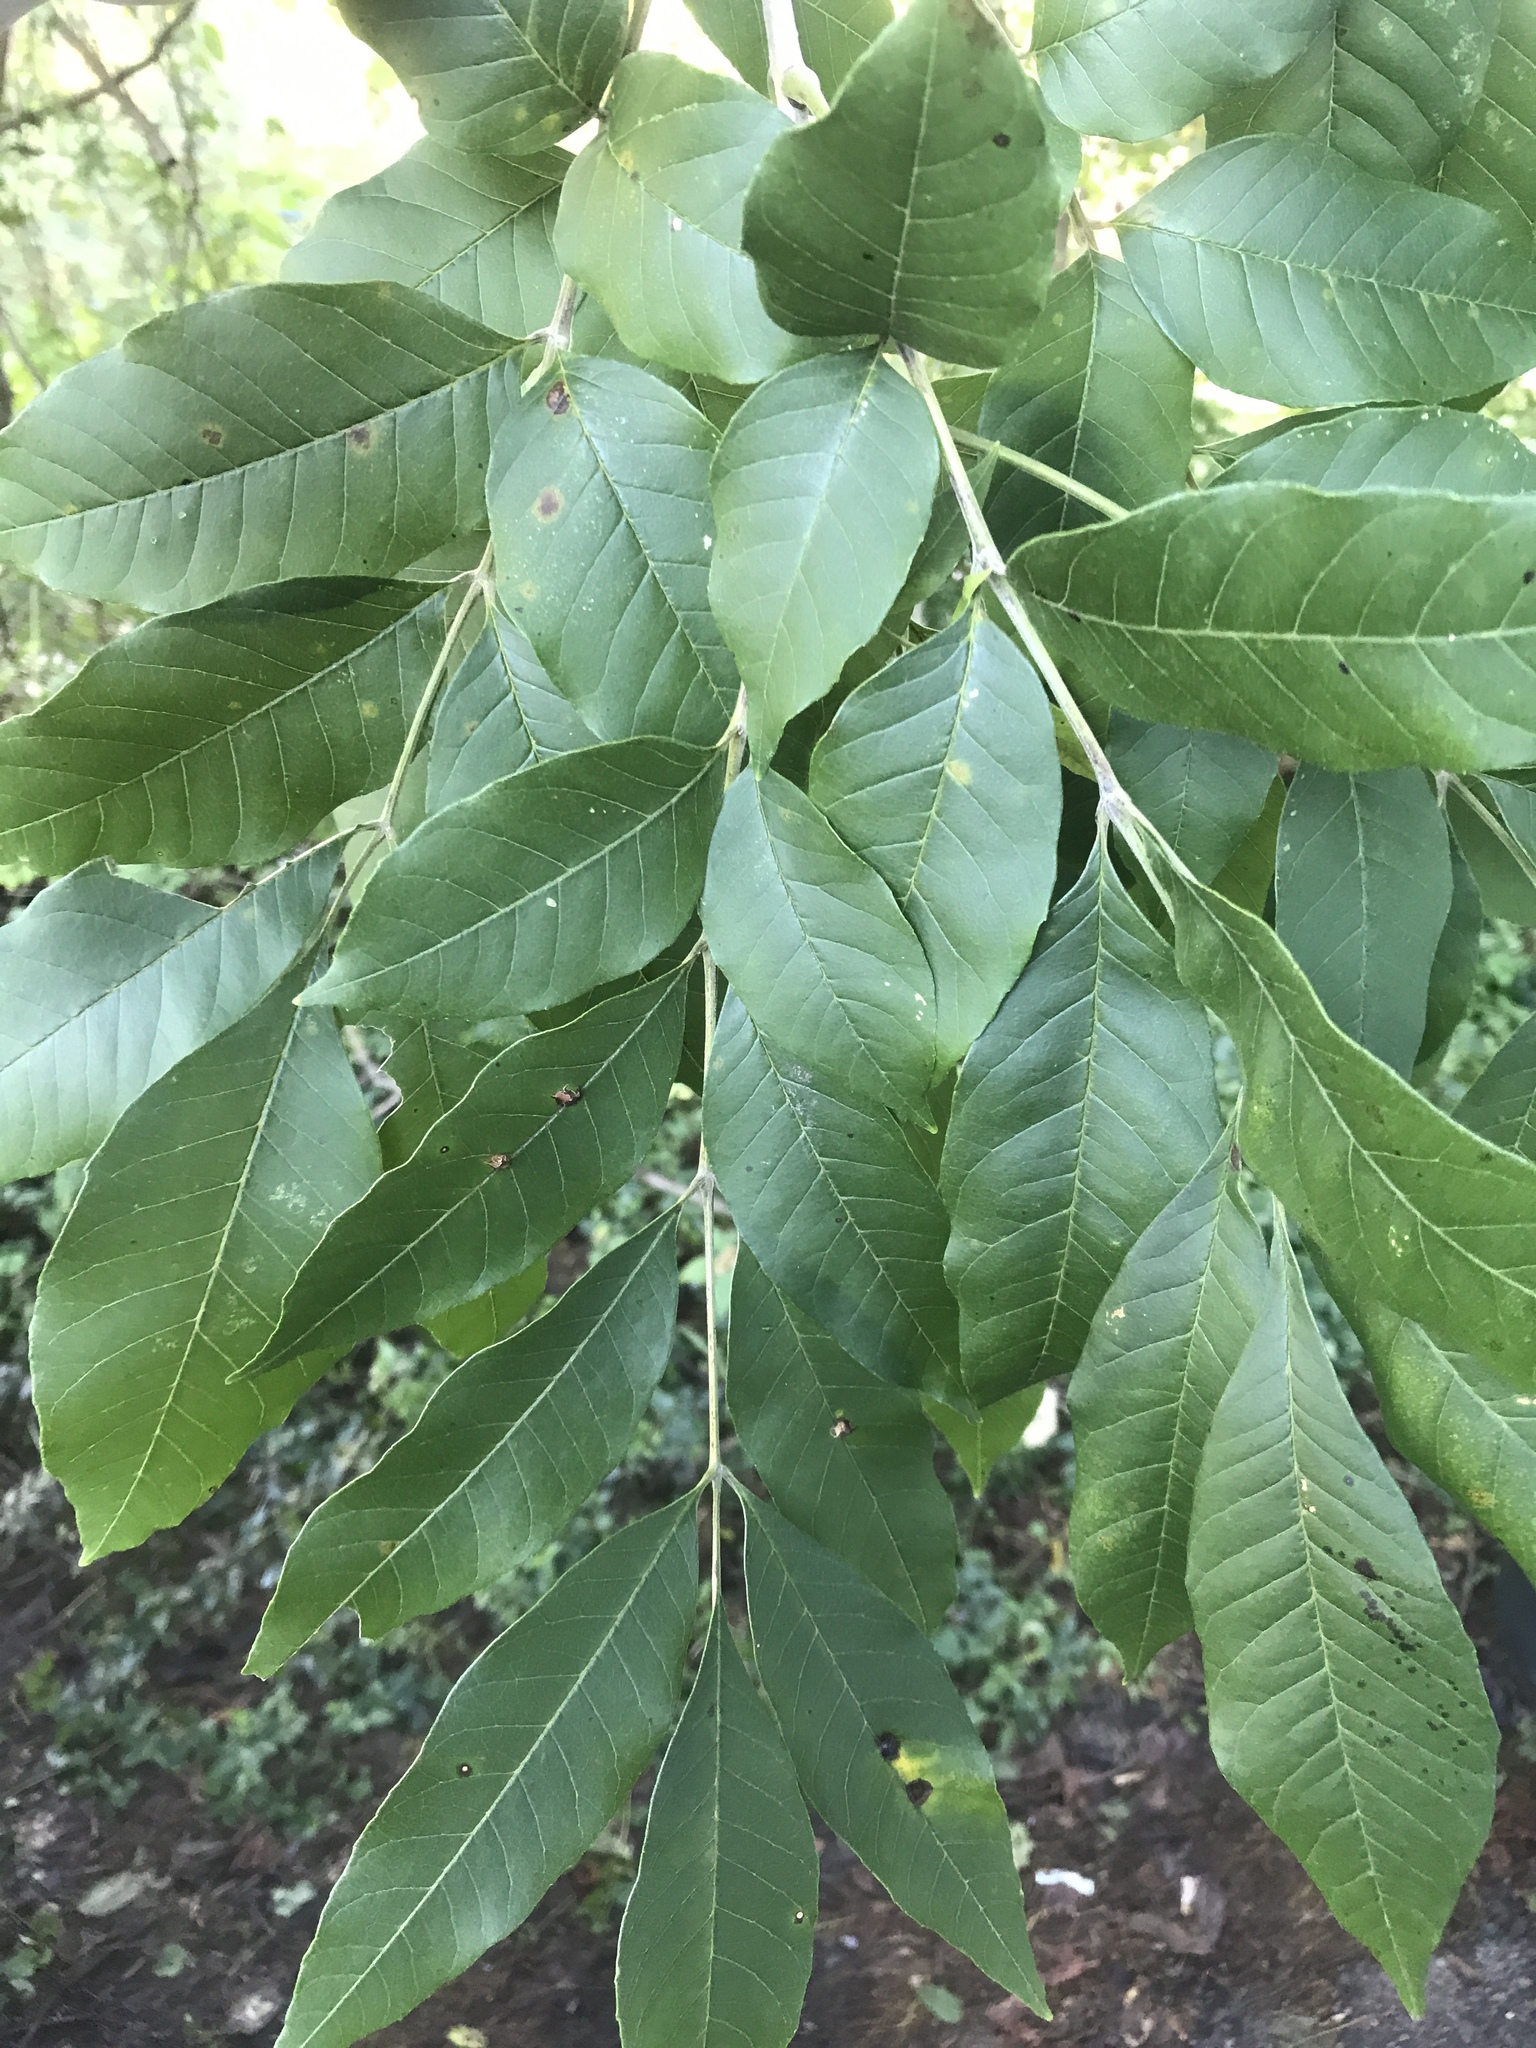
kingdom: Plantae
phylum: Tracheophyta
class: Magnoliopsida
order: Lamiales
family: Oleaceae
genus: Fraxinus
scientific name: Fraxinus pennsylvanica
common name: Green ash
